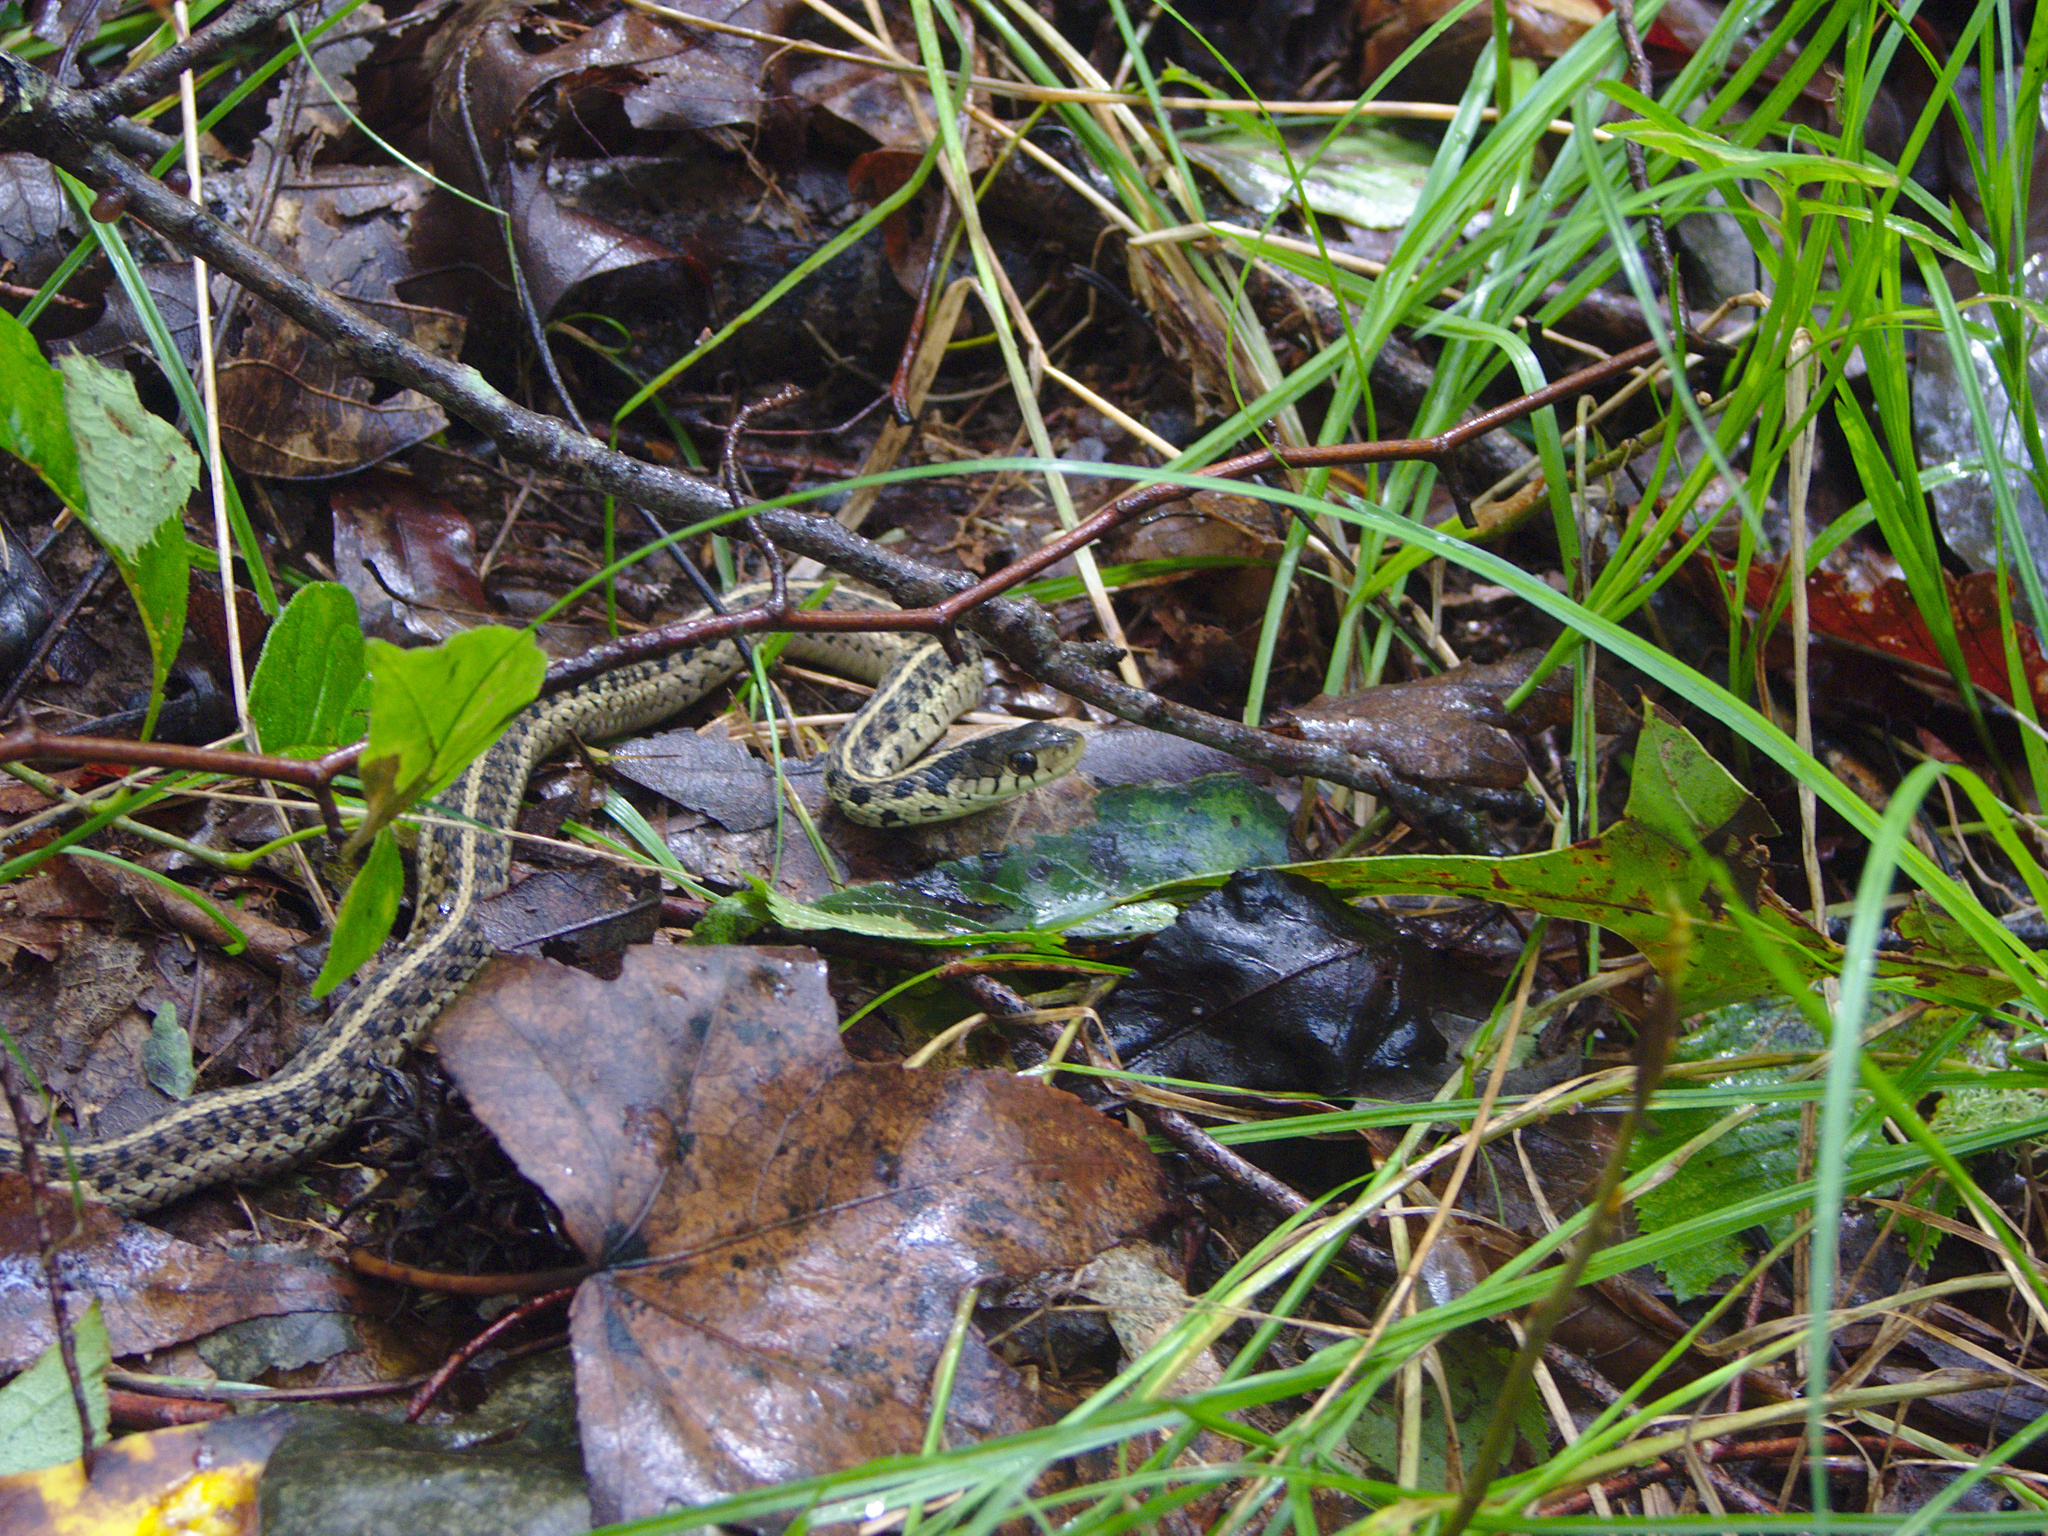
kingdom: Animalia
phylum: Chordata
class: Squamata
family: Colubridae
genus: Thamnophis
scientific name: Thamnophis sirtalis
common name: Common garter snake
